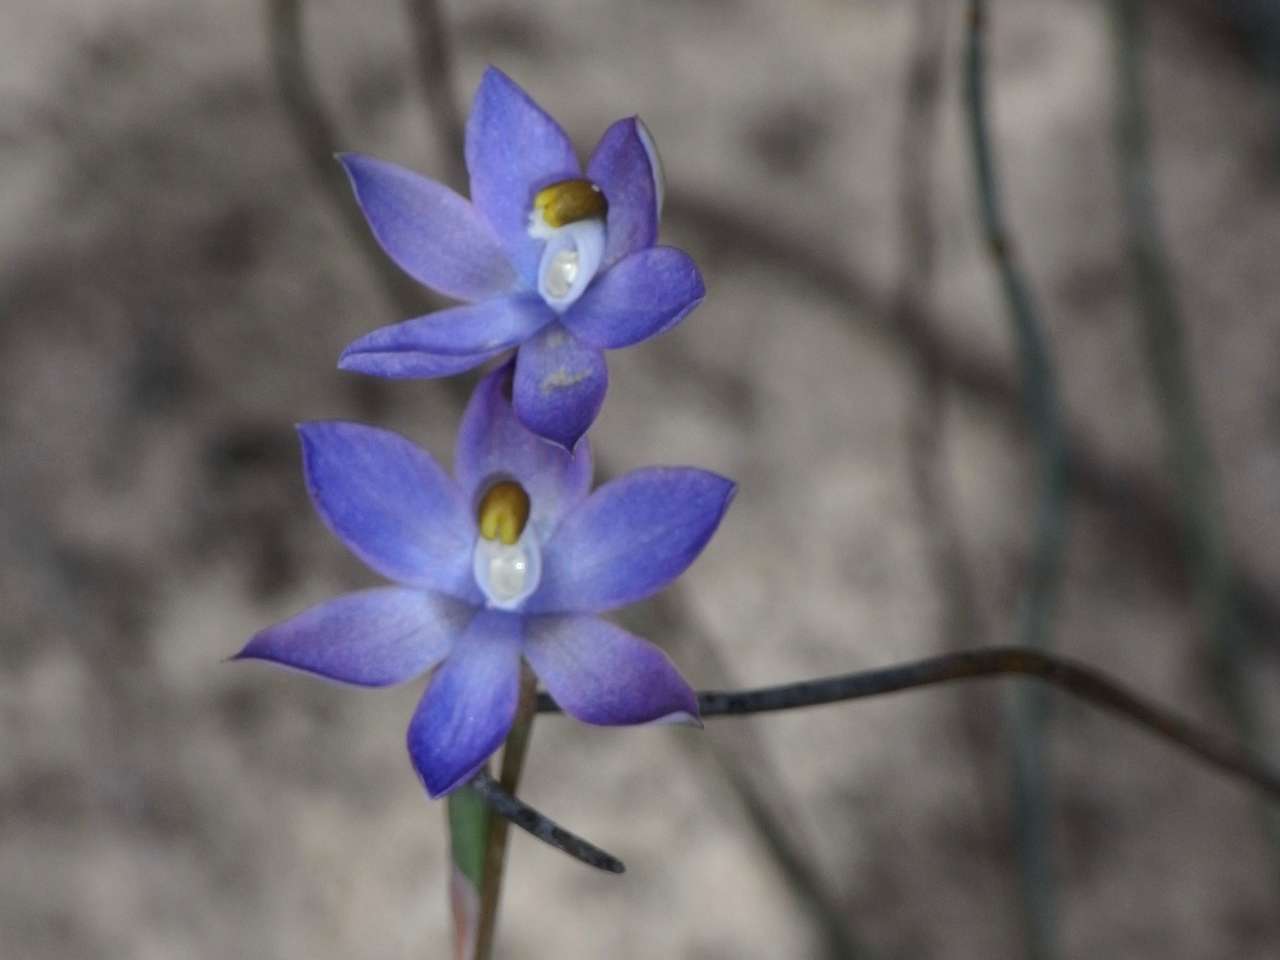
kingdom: Plantae
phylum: Tracheophyta
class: Liliopsida
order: Asparagales
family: Orchidaceae
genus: Thelymitra
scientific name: Thelymitra nuda
